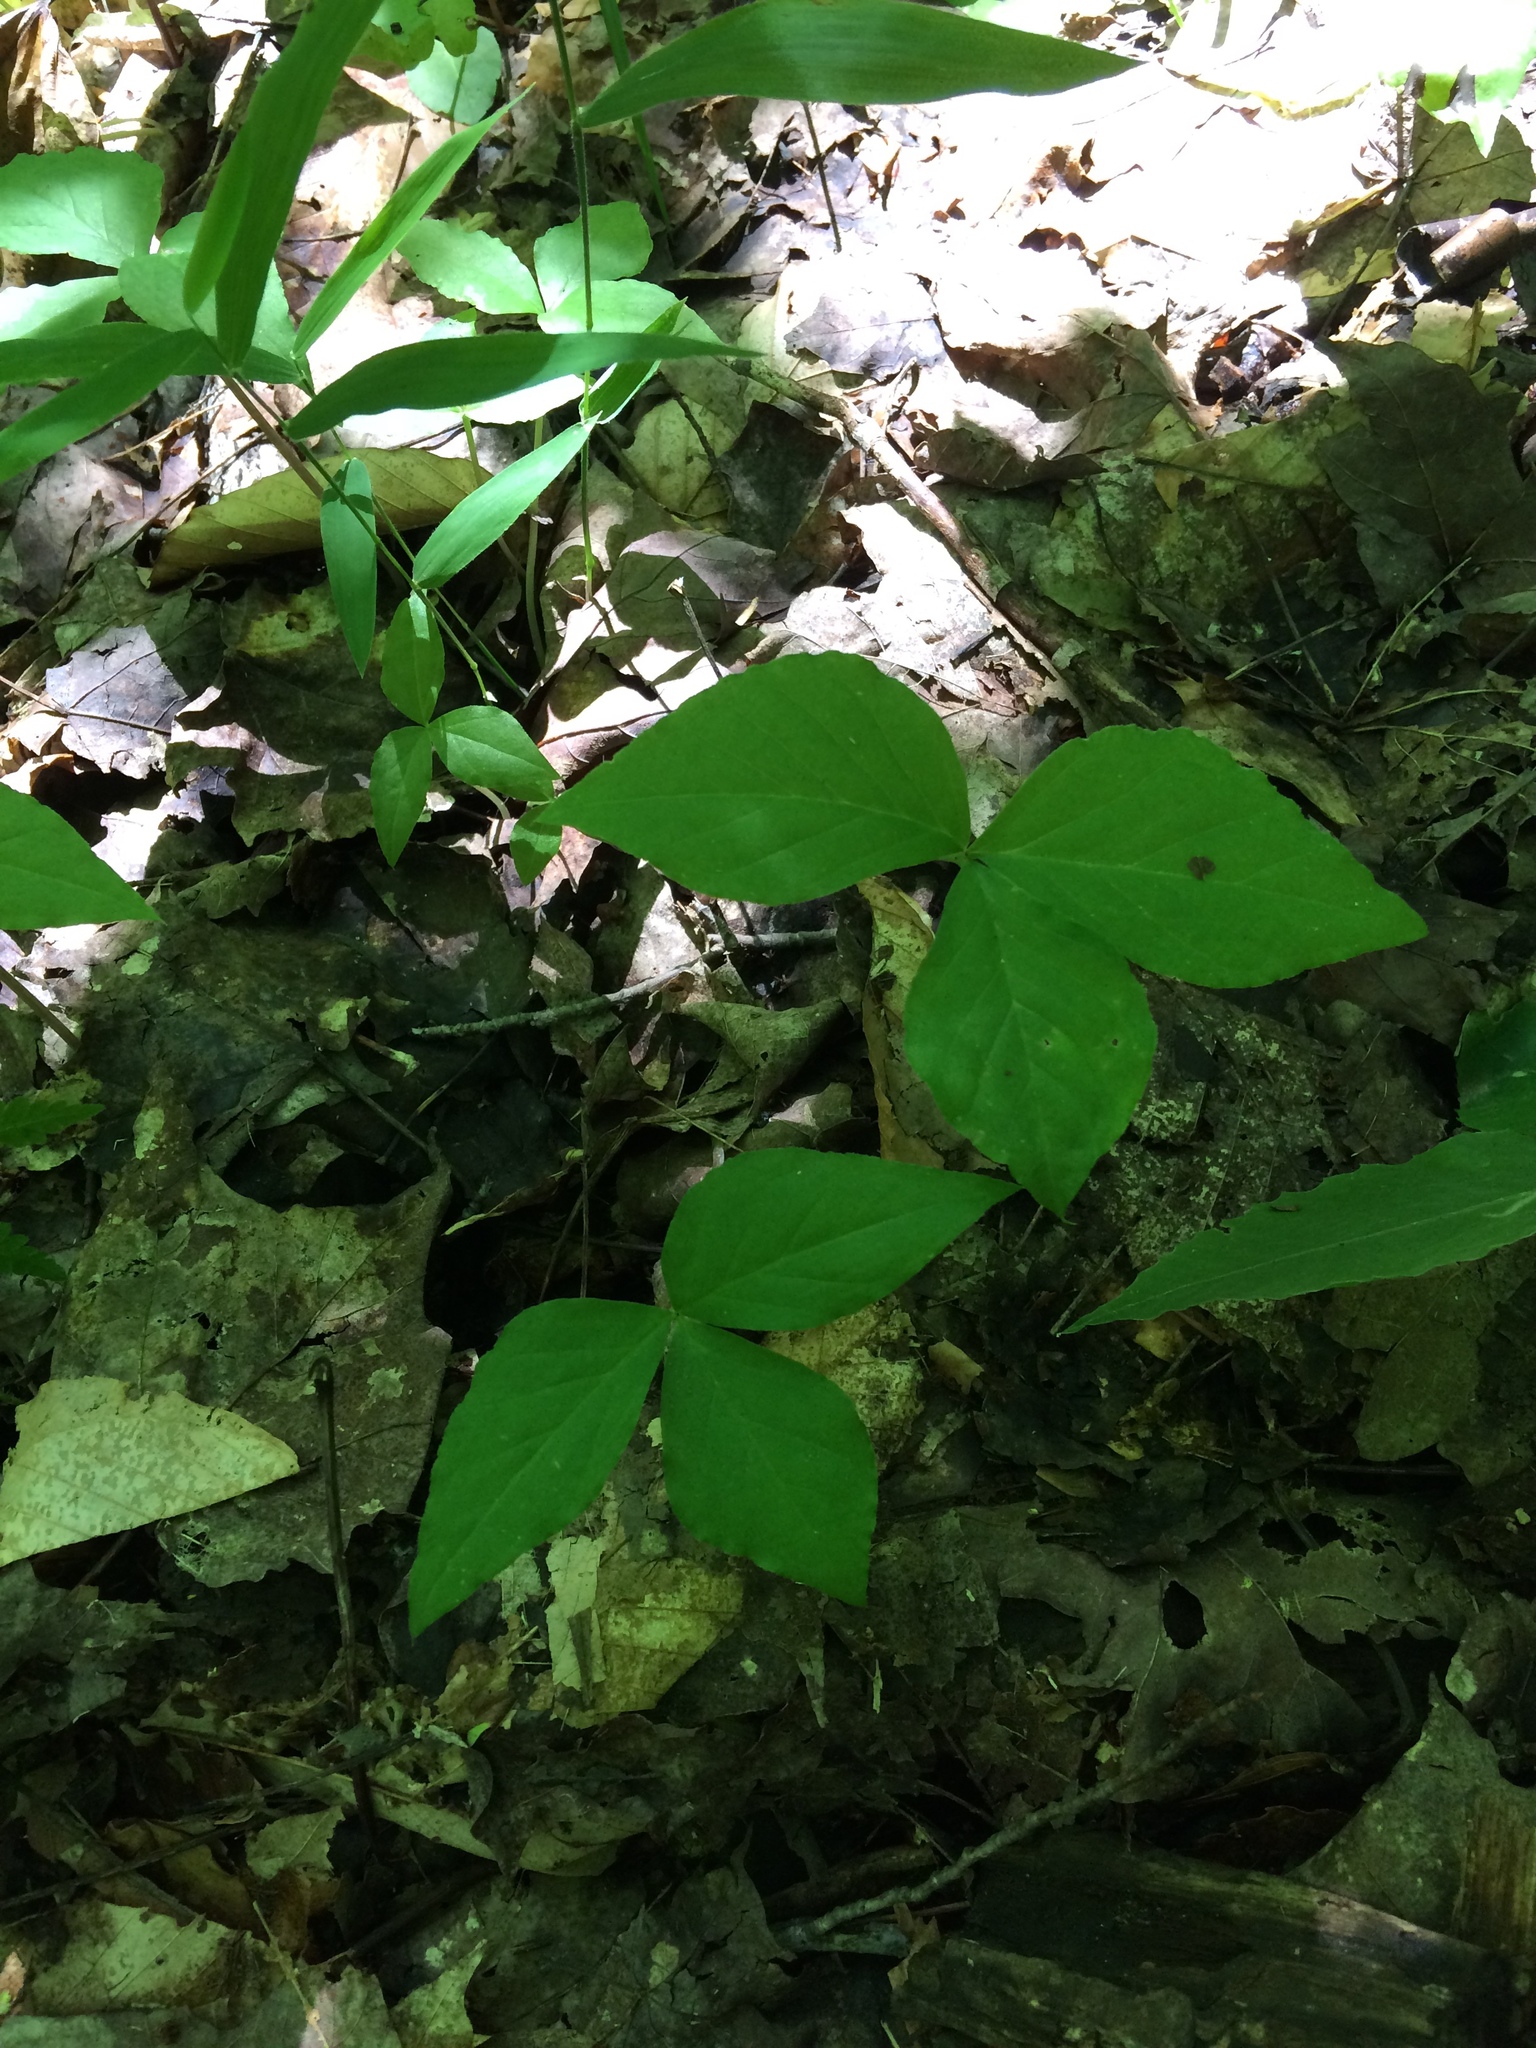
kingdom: Plantae
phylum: Tracheophyta
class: Liliopsida
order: Alismatales
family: Araceae
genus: Arisaema
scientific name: Arisaema triphyllum
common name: Jack-in-the-pulpit
